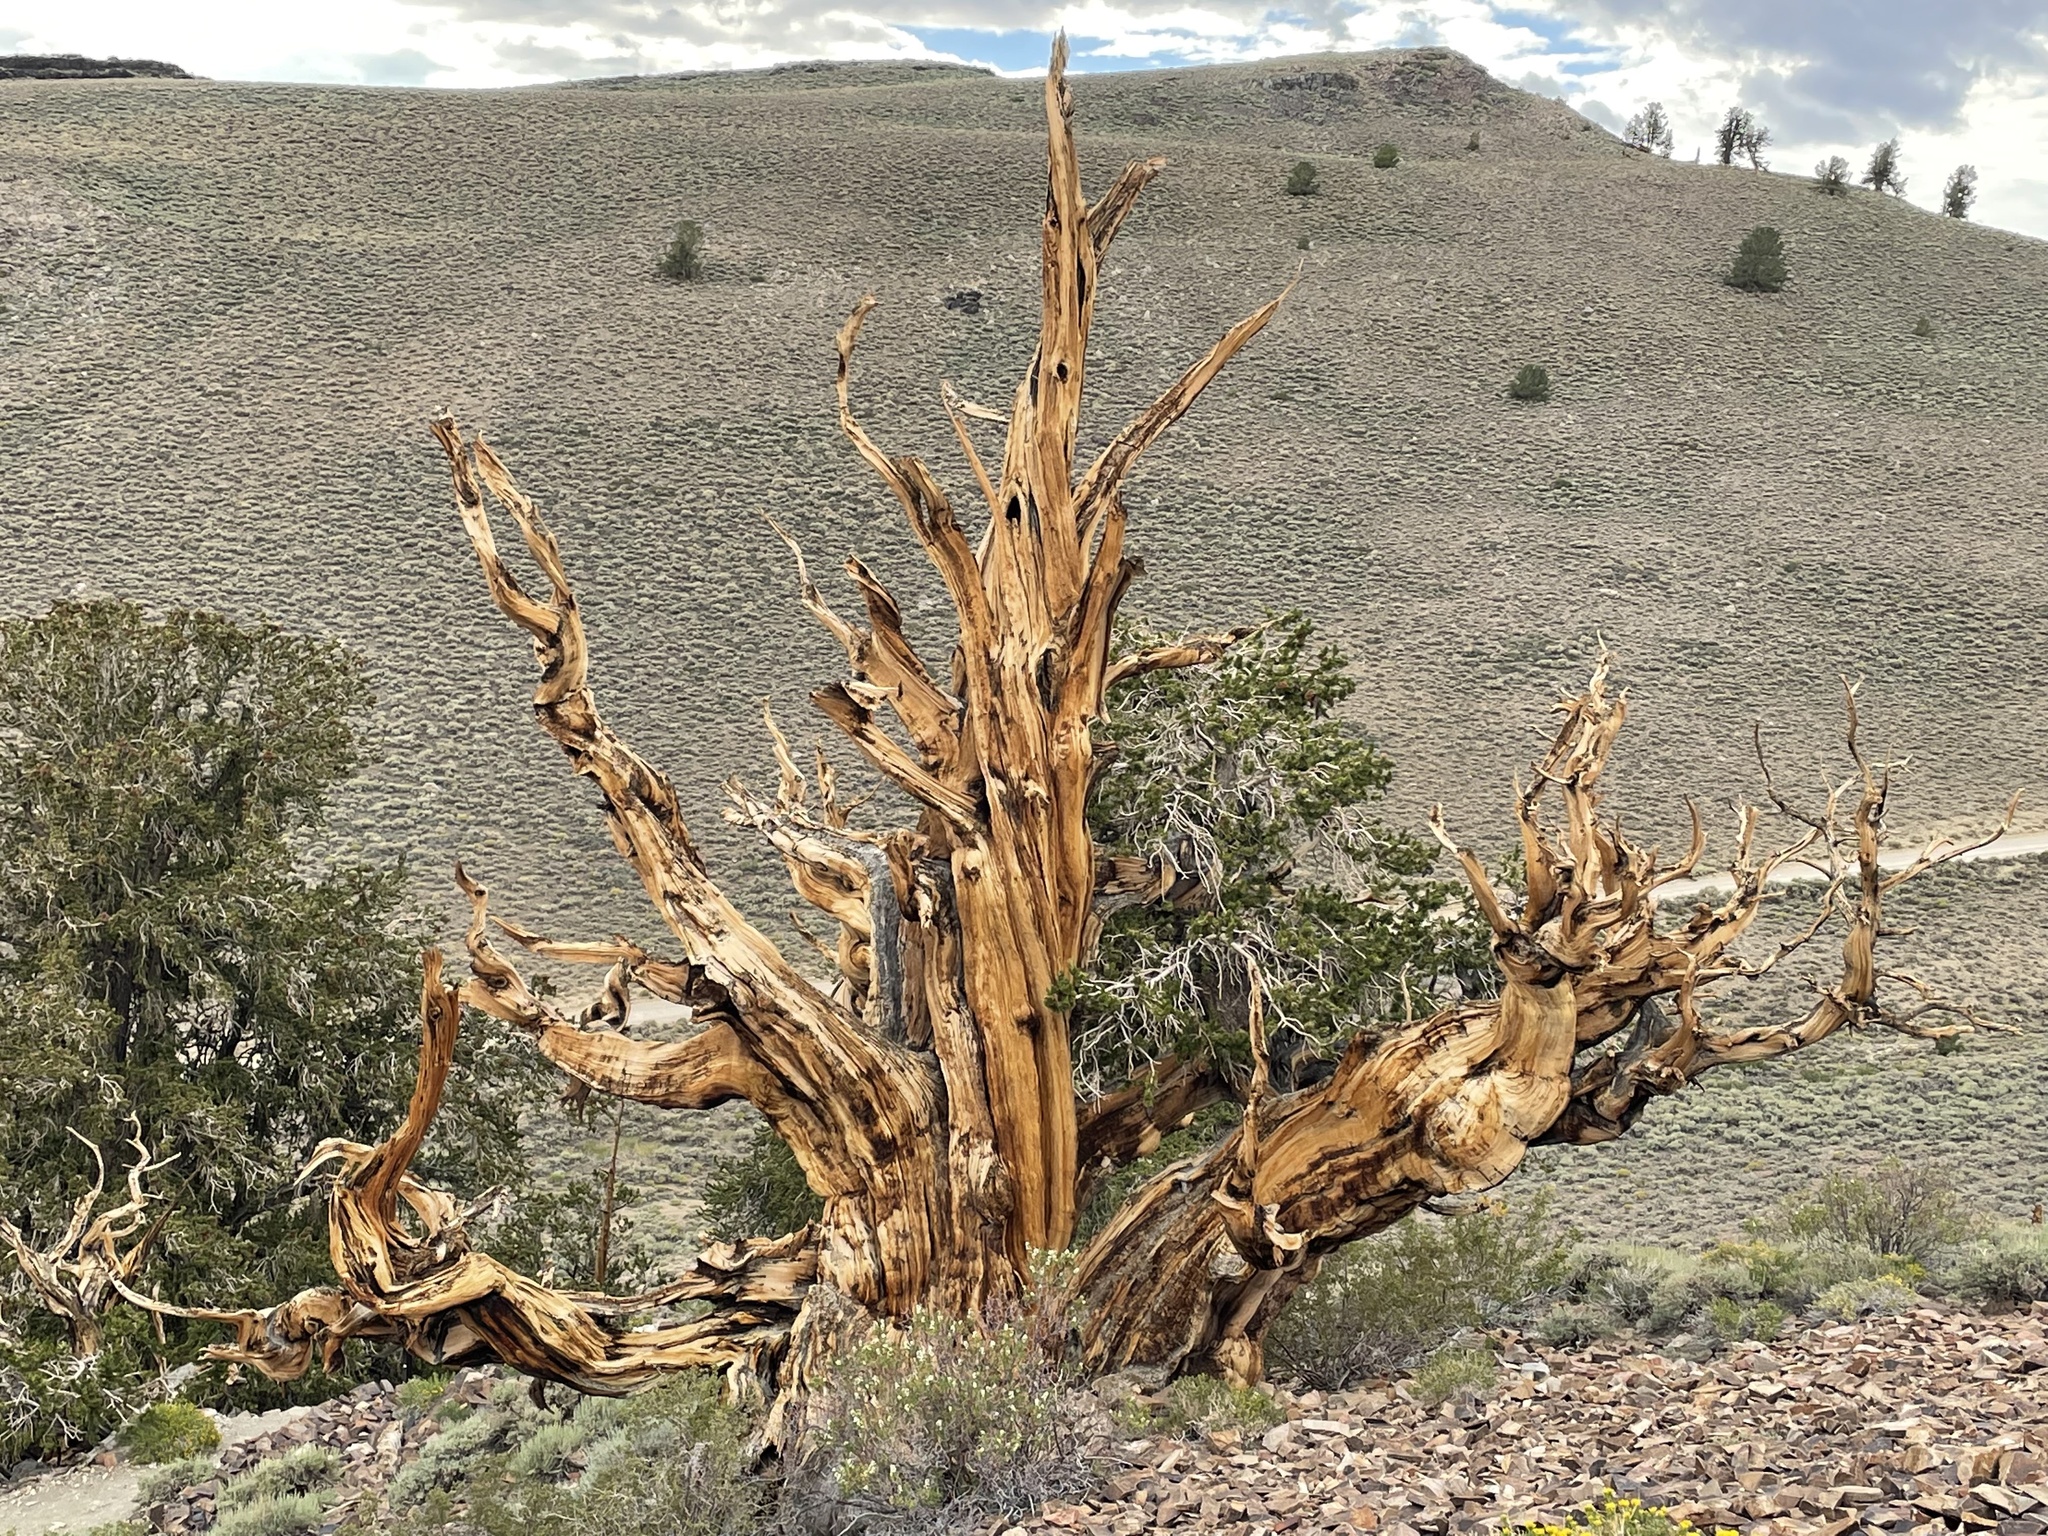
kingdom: Plantae
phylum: Tracheophyta
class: Pinopsida
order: Pinales
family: Pinaceae
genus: Pinus
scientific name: Pinus longaeva
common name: Intermountain bristlecone pine
